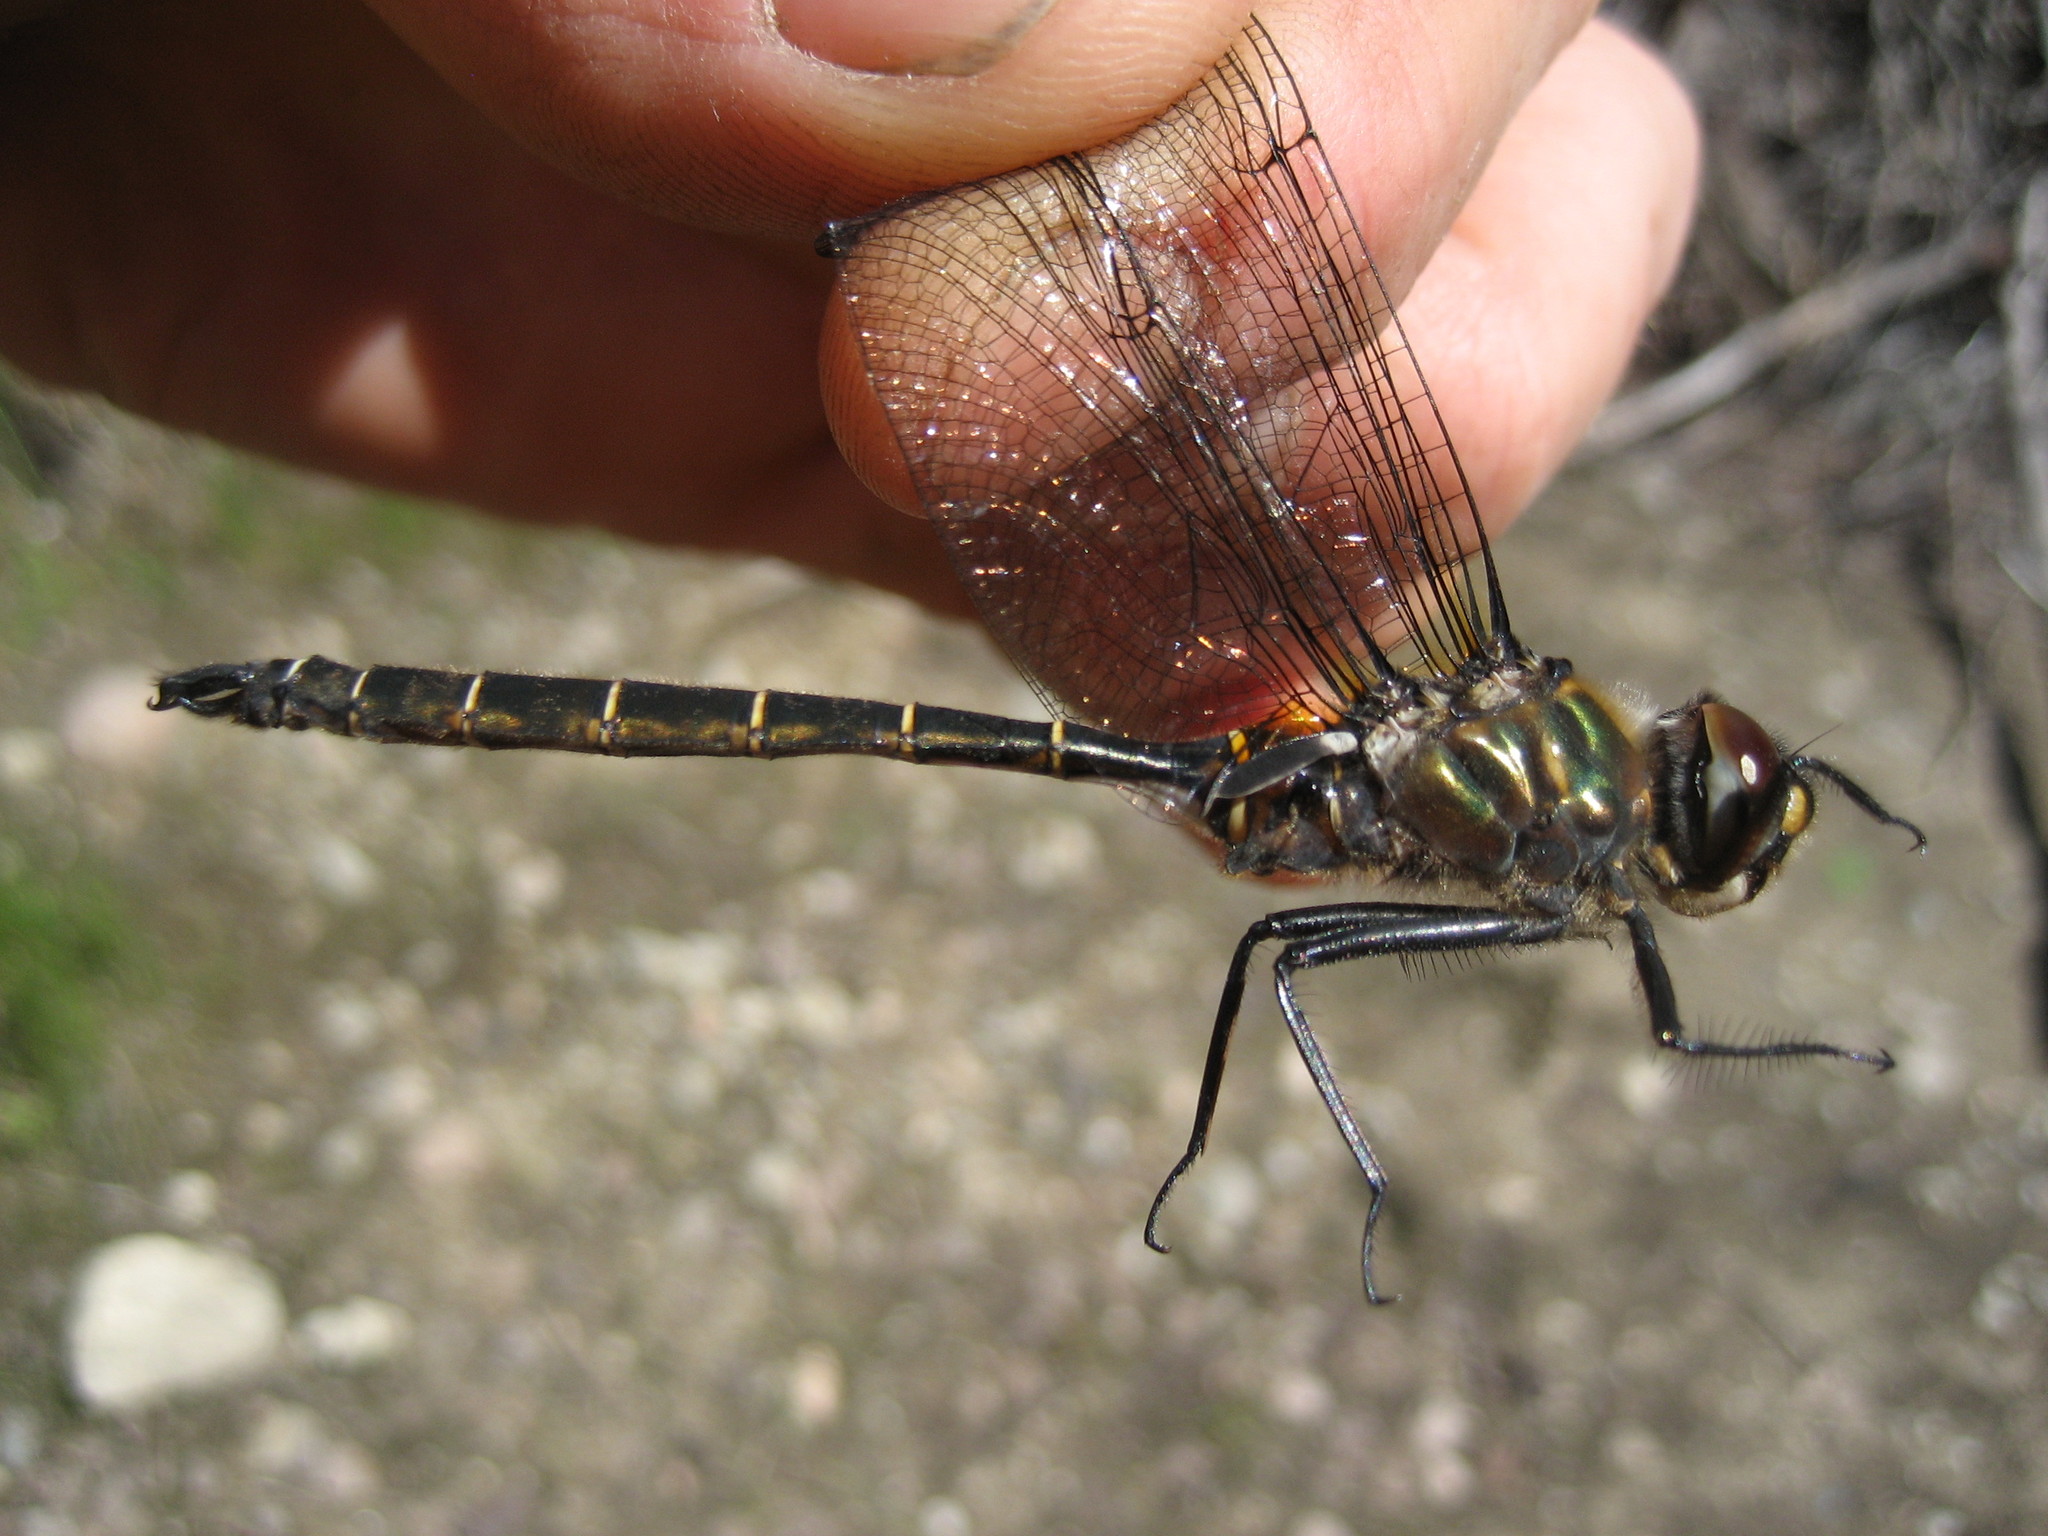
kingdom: Animalia
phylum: Arthropoda
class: Insecta
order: Odonata
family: Corduliidae
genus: Somatochlora
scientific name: Somatochlora cingulata
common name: Lake emerald
